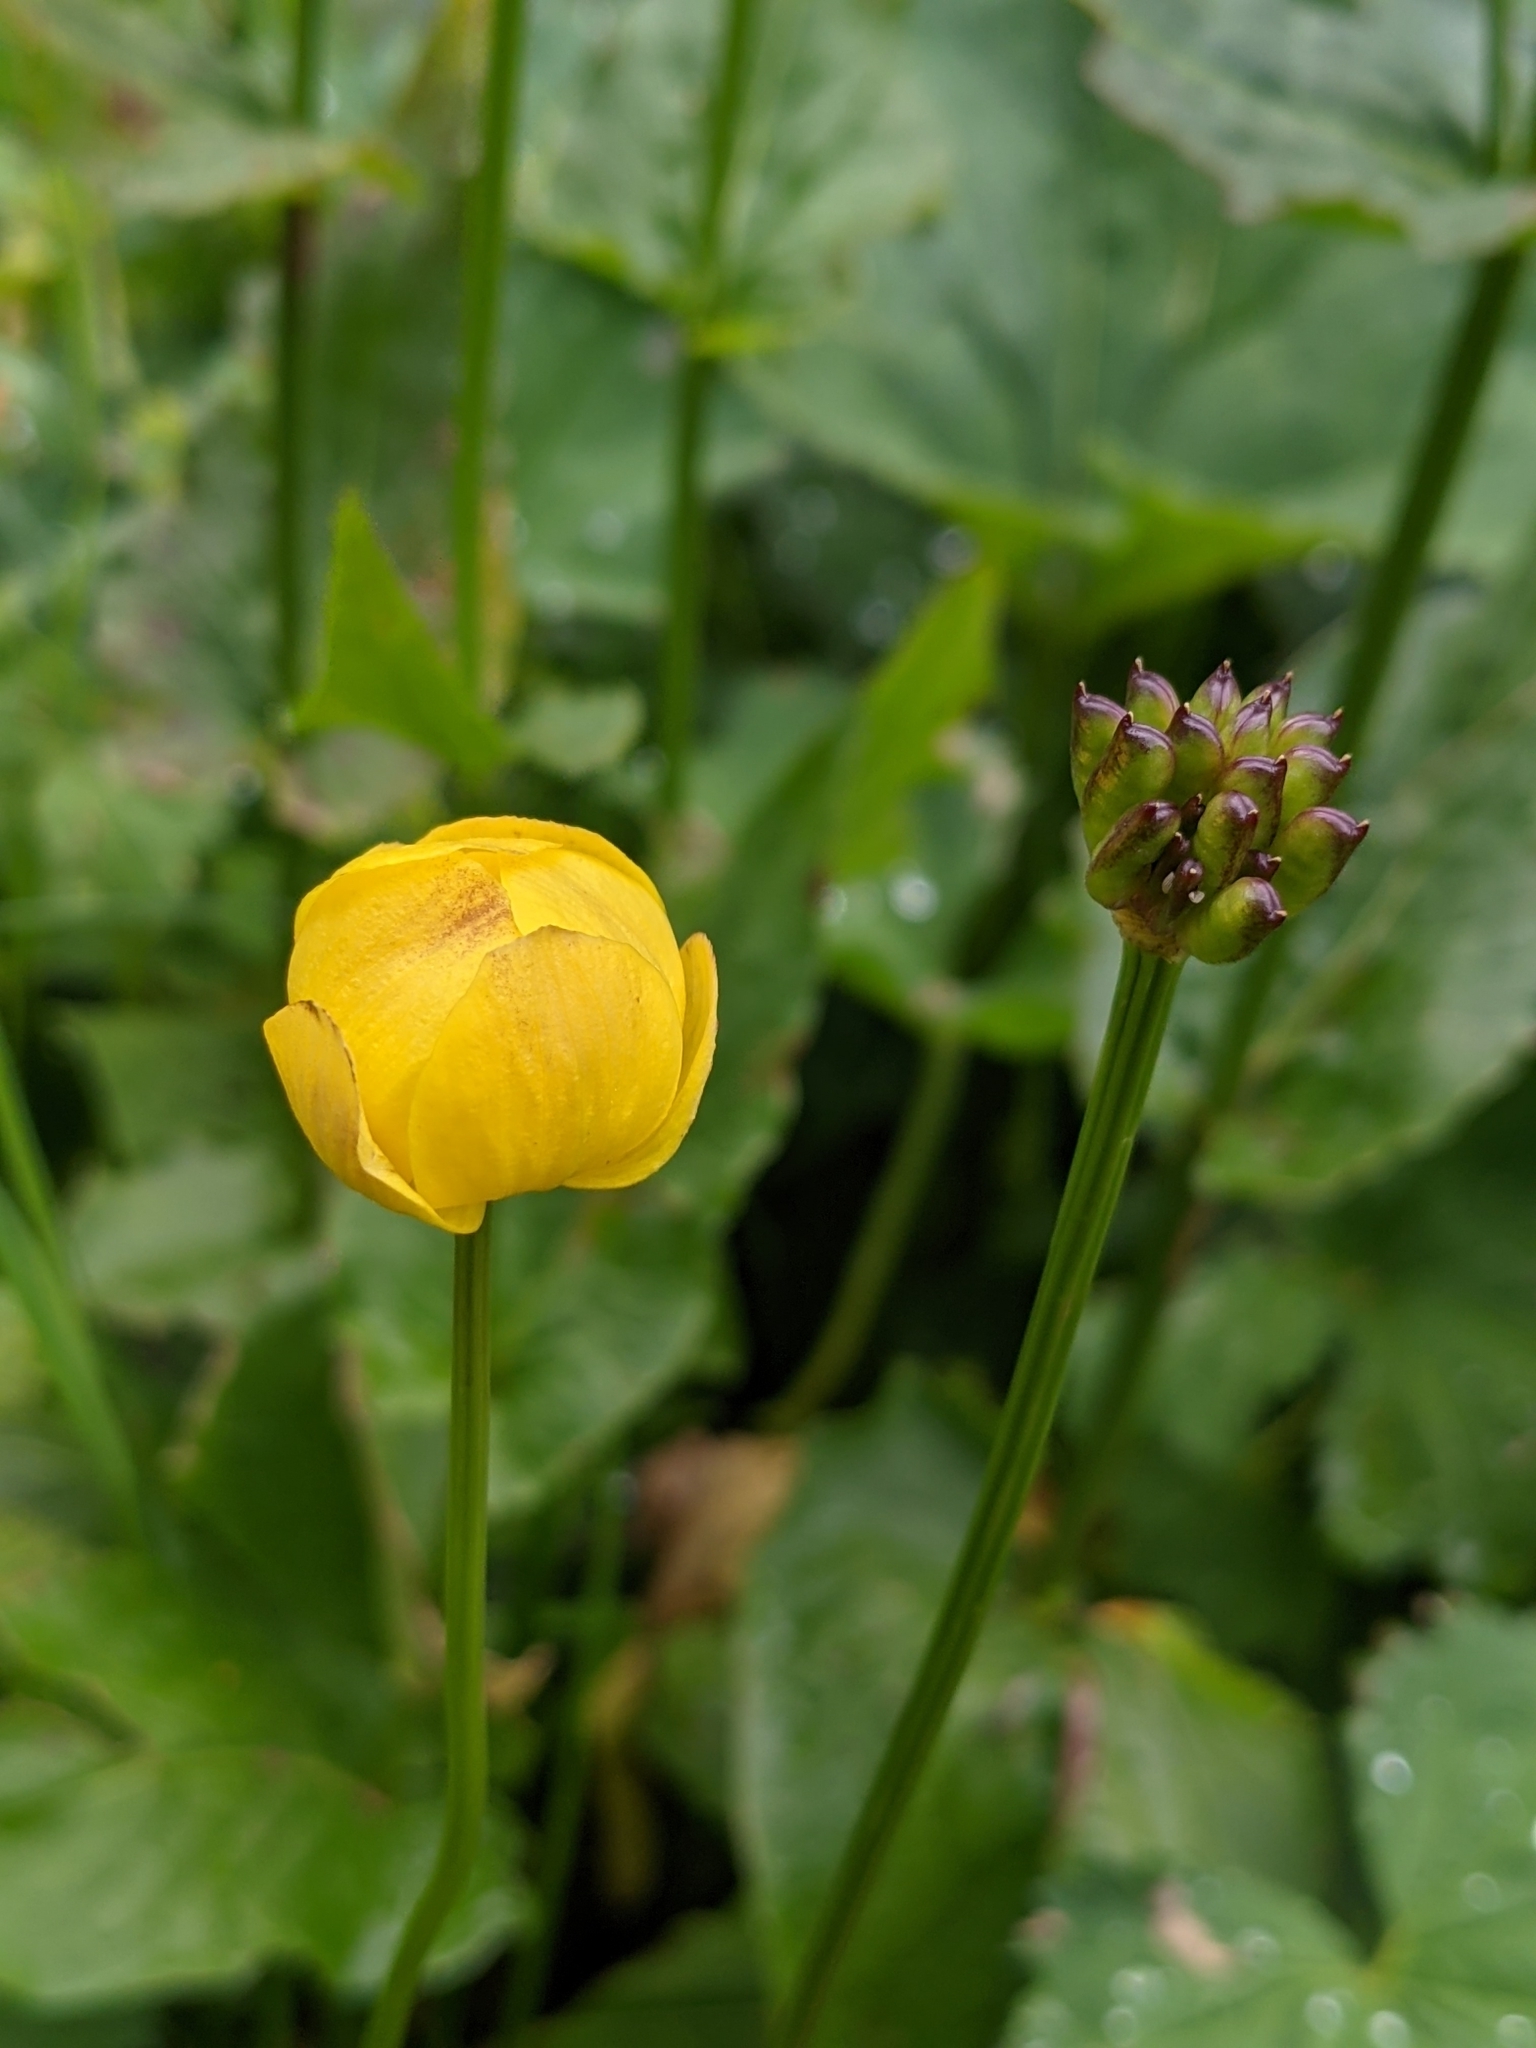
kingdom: Plantae
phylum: Tracheophyta
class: Magnoliopsida
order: Ranunculales
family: Ranunculaceae
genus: Trollius
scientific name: Trollius europaeus
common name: European globeflower
